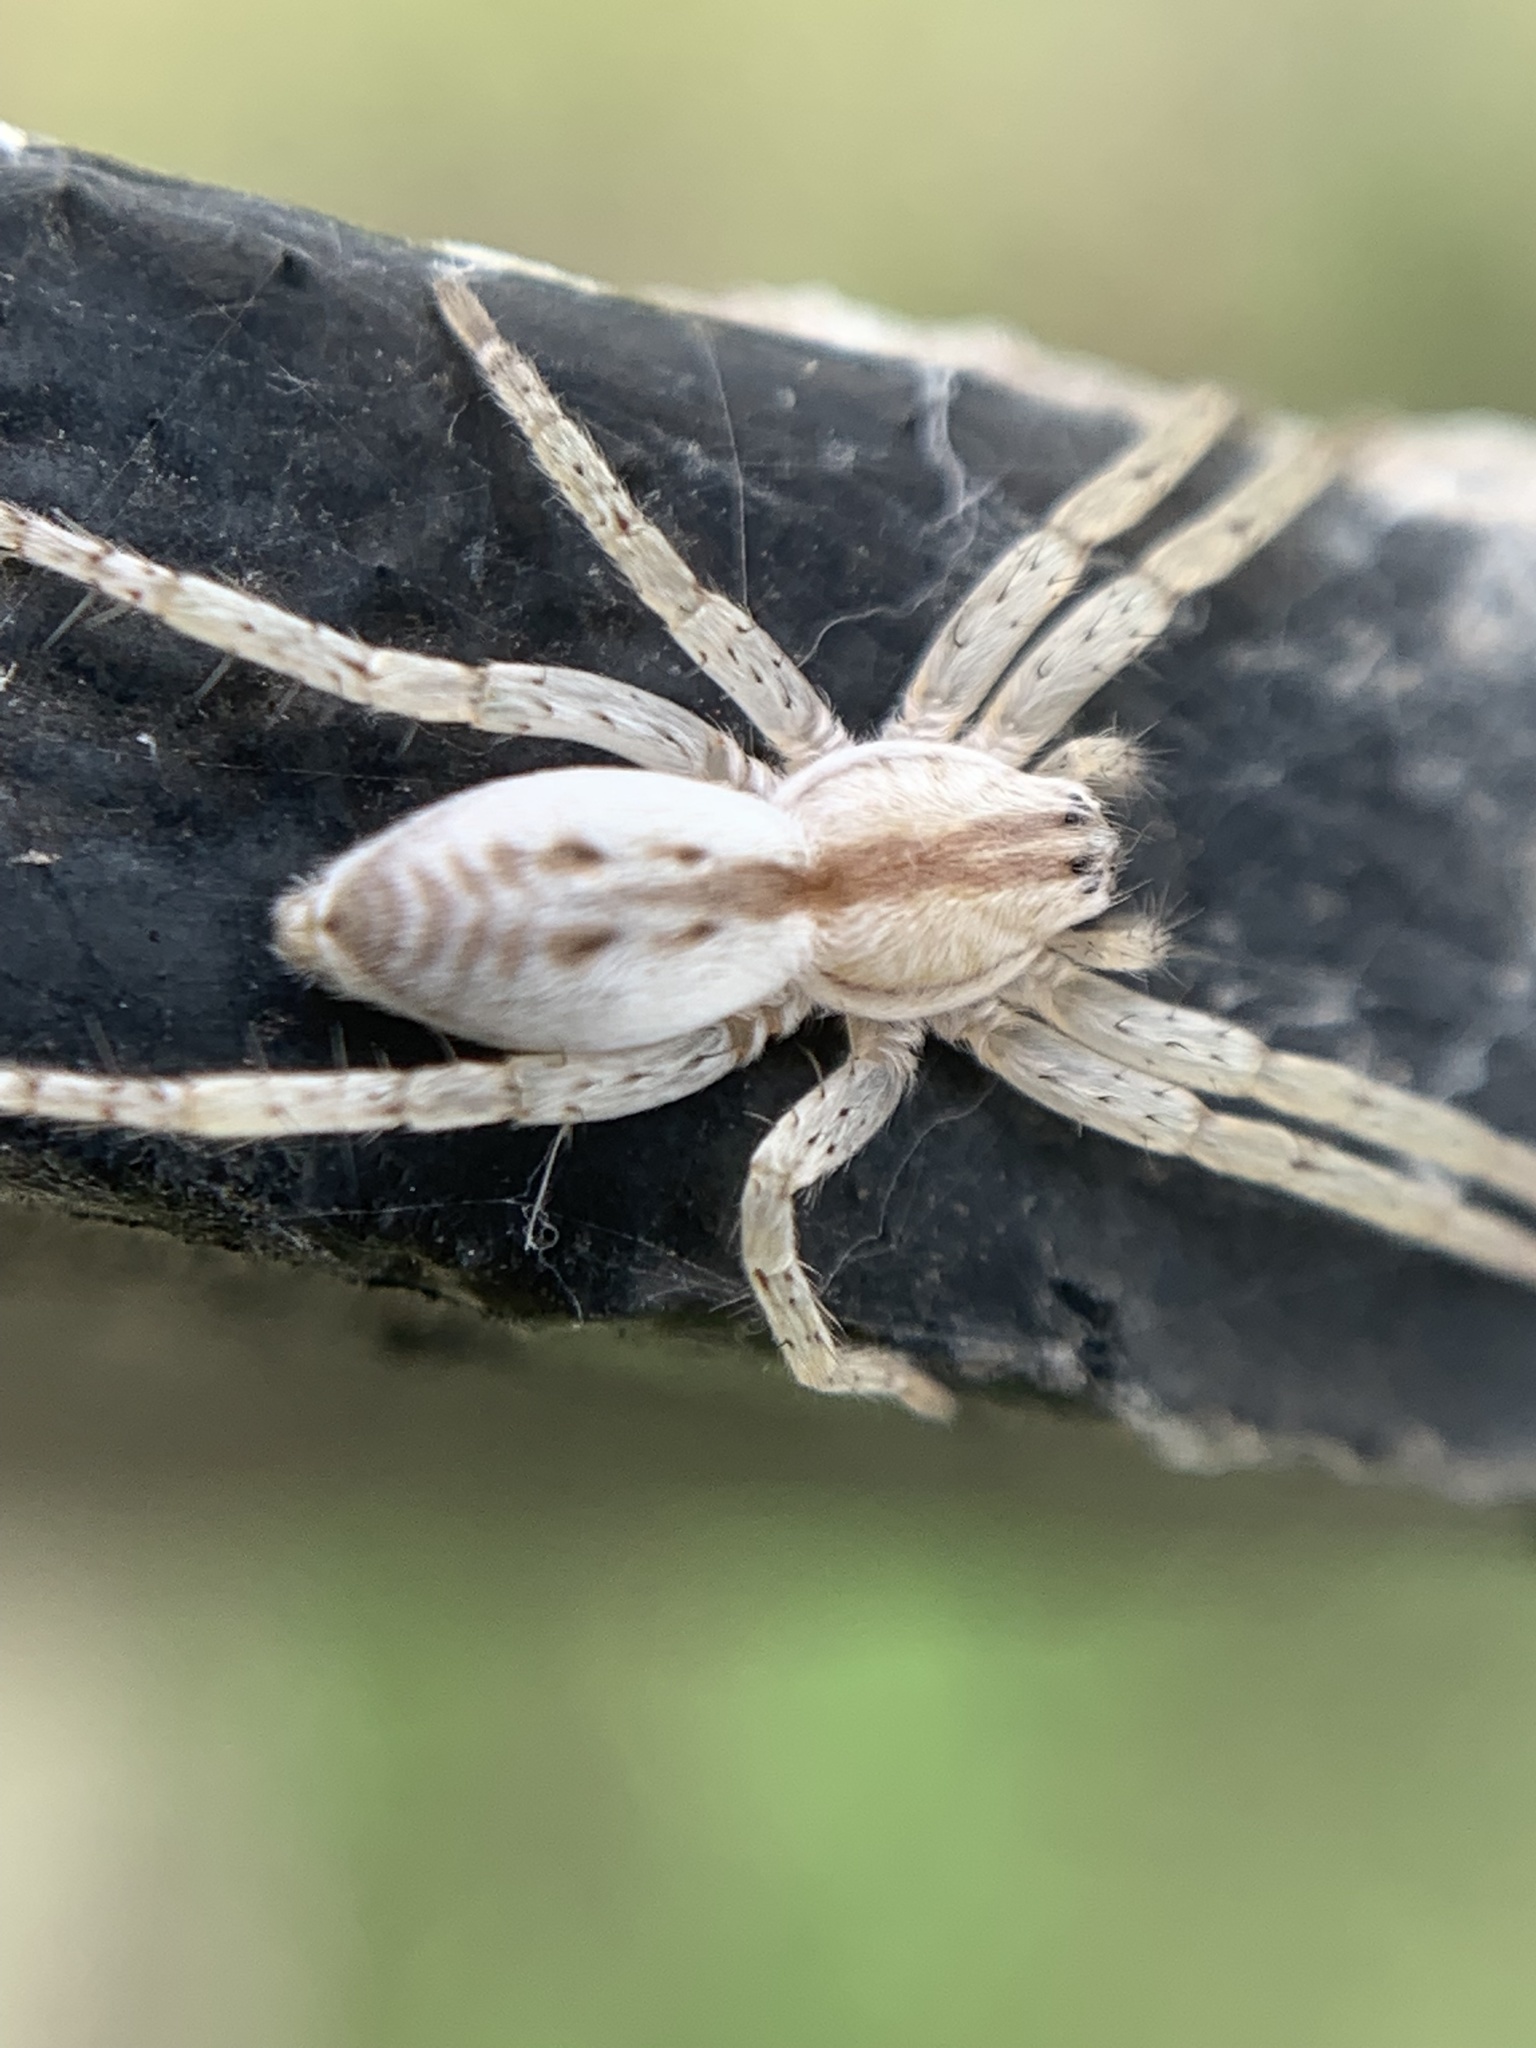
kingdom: Animalia
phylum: Arthropoda
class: Arachnida
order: Araneae
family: Anyphaenidae
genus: Arachosia
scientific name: Arachosia praesignis
